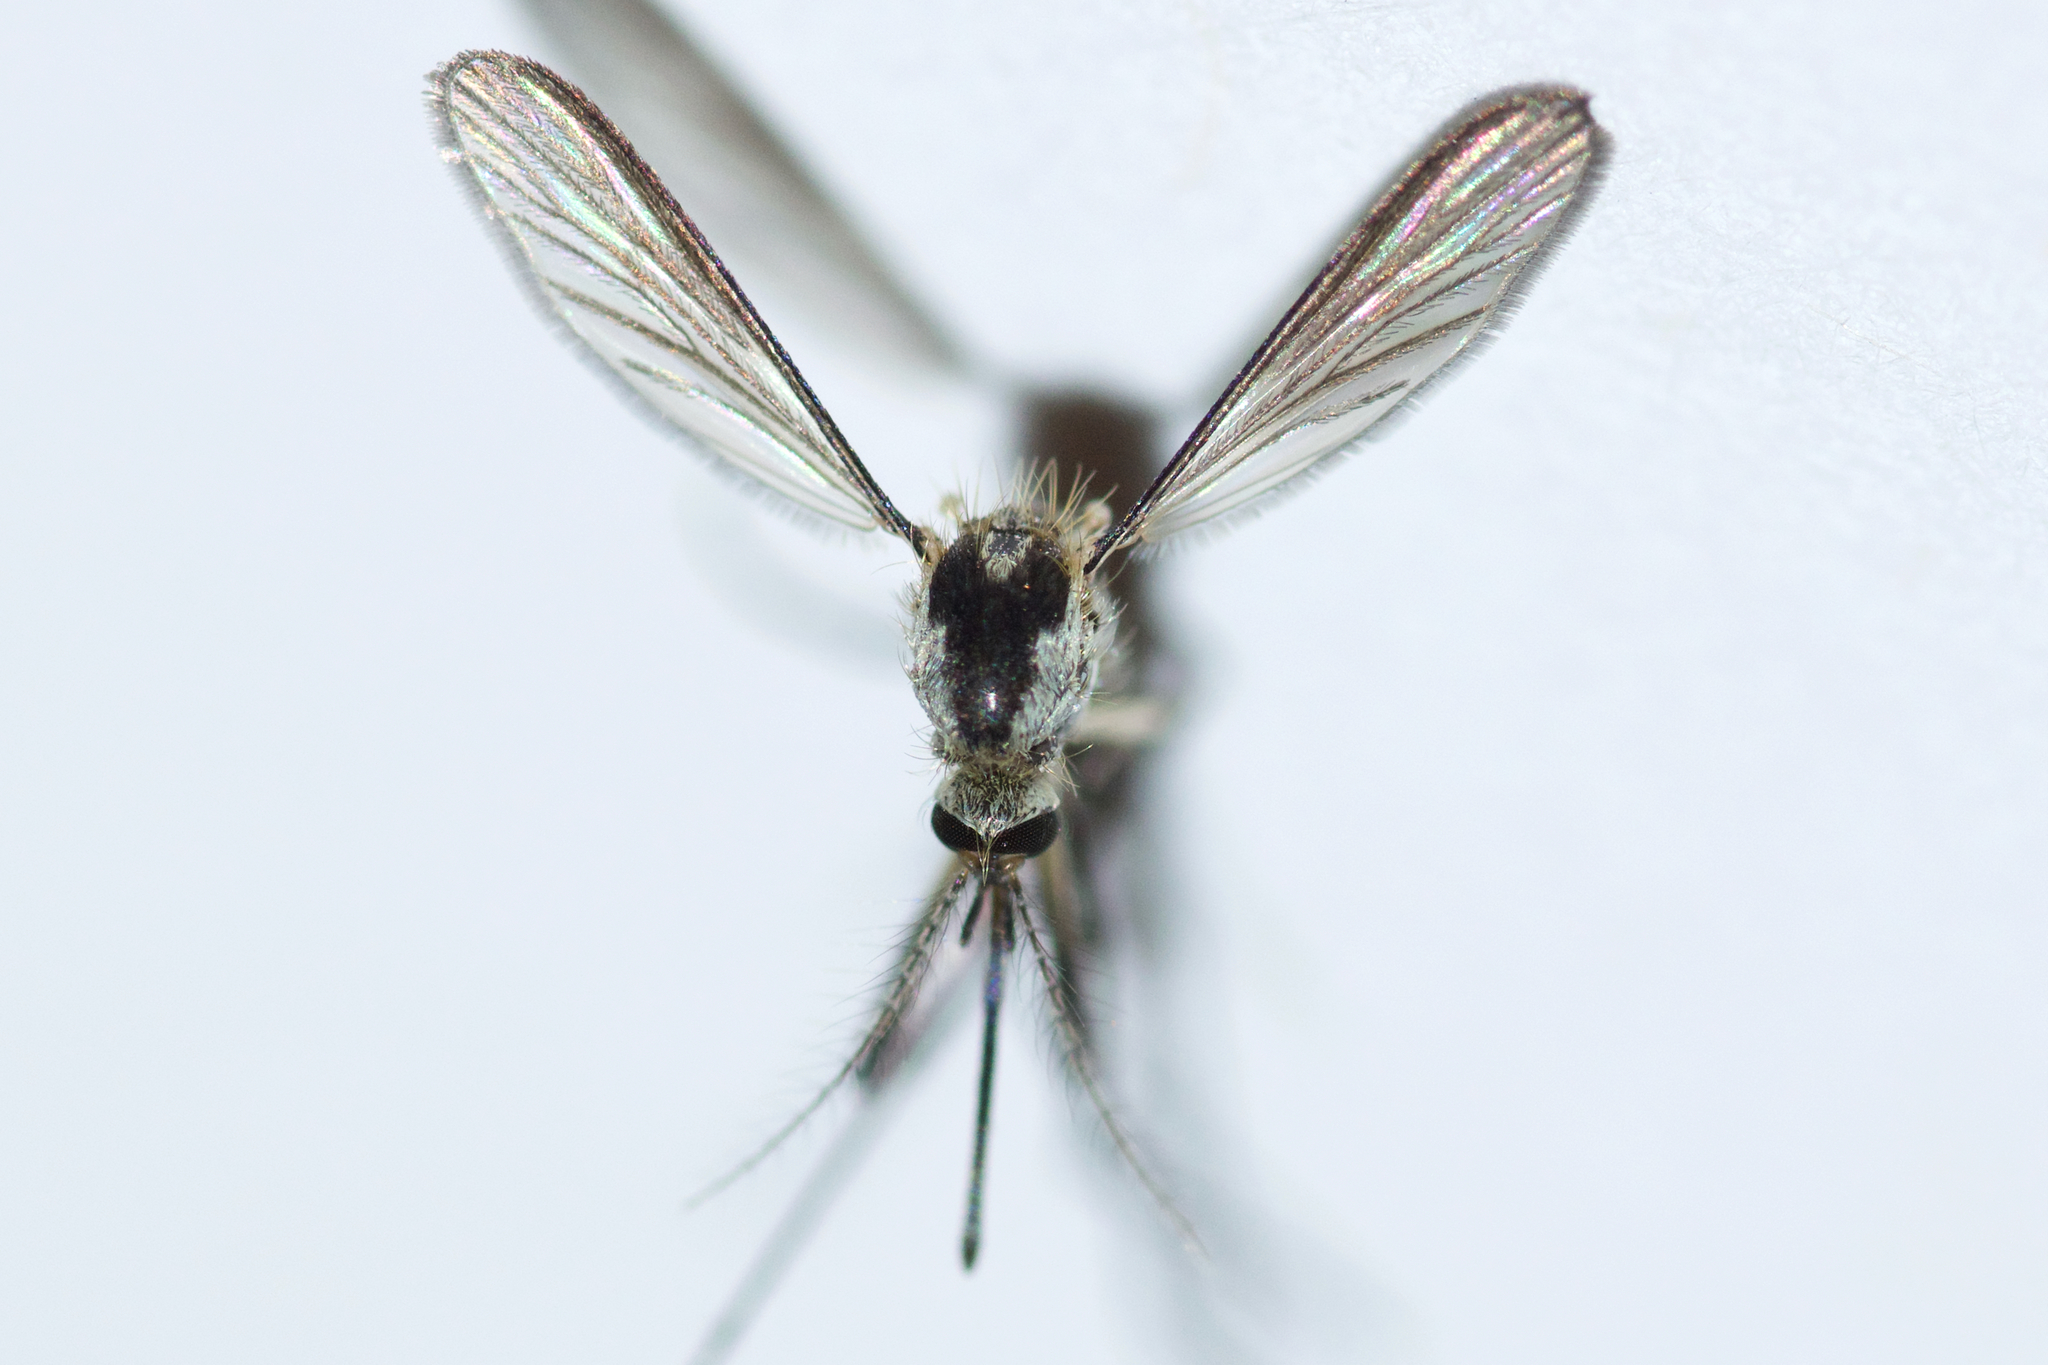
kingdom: Animalia
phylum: Arthropoda
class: Insecta
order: Diptera
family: Culicidae
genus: Aedes
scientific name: Aedes triseriatus
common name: Eastern treehole mosquito
